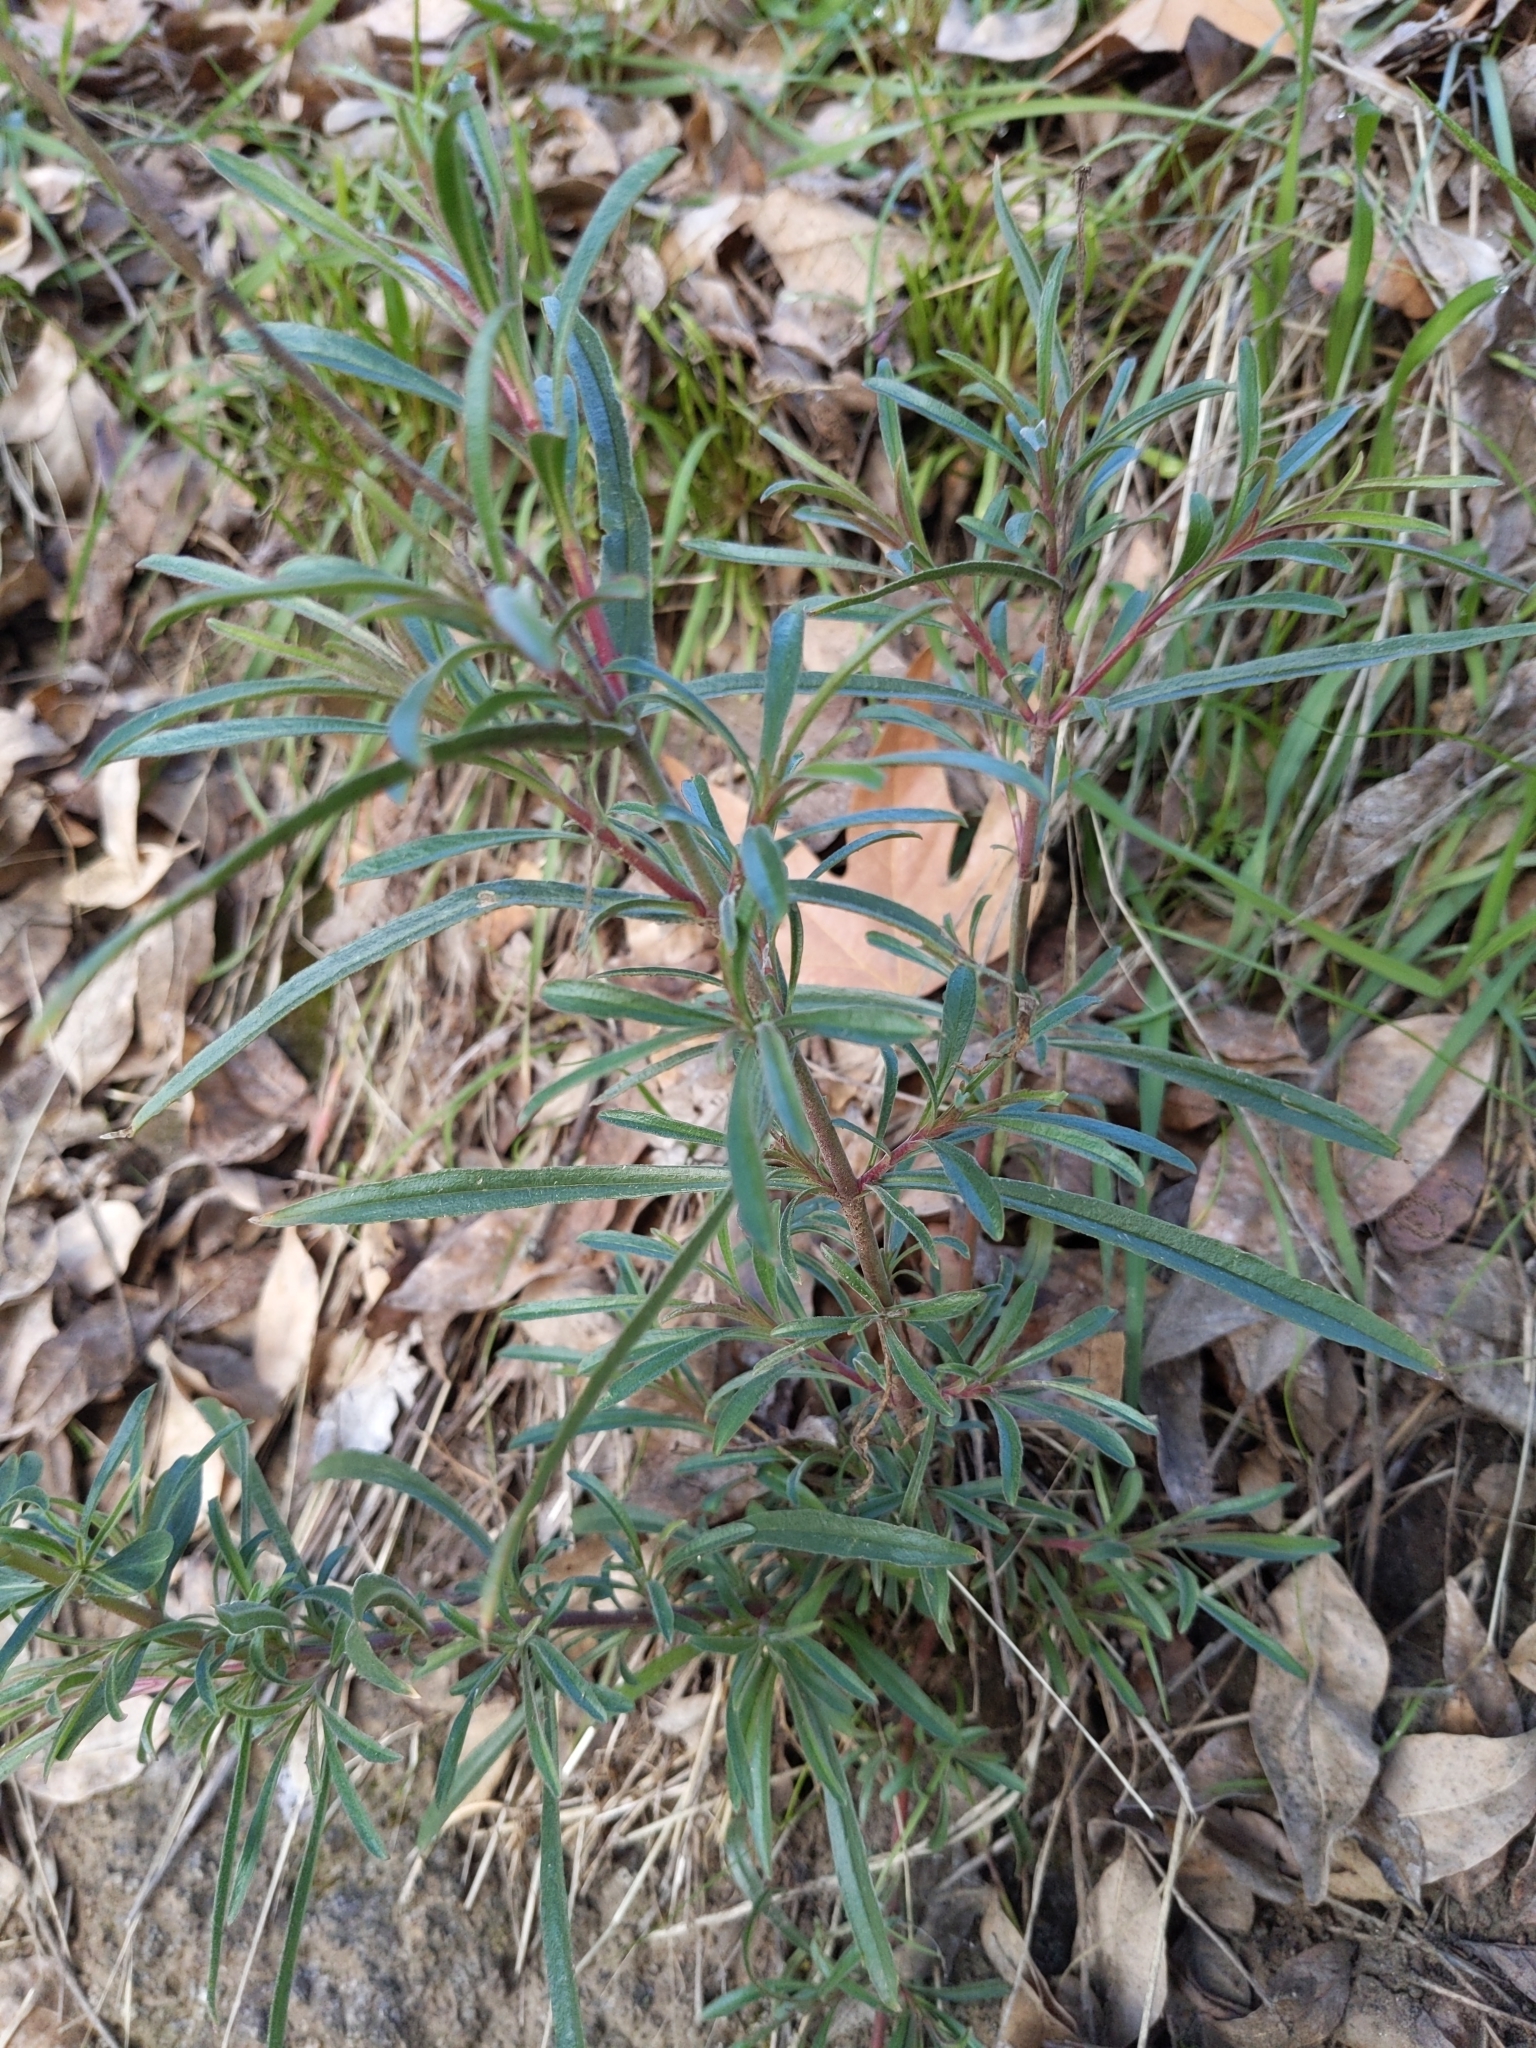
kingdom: Plantae
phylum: Tracheophyta
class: Magnoliopsida
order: Lamiales
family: Plantaginaceae
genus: Penstemon
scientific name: Penstemon laetus
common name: Gay penstemon
